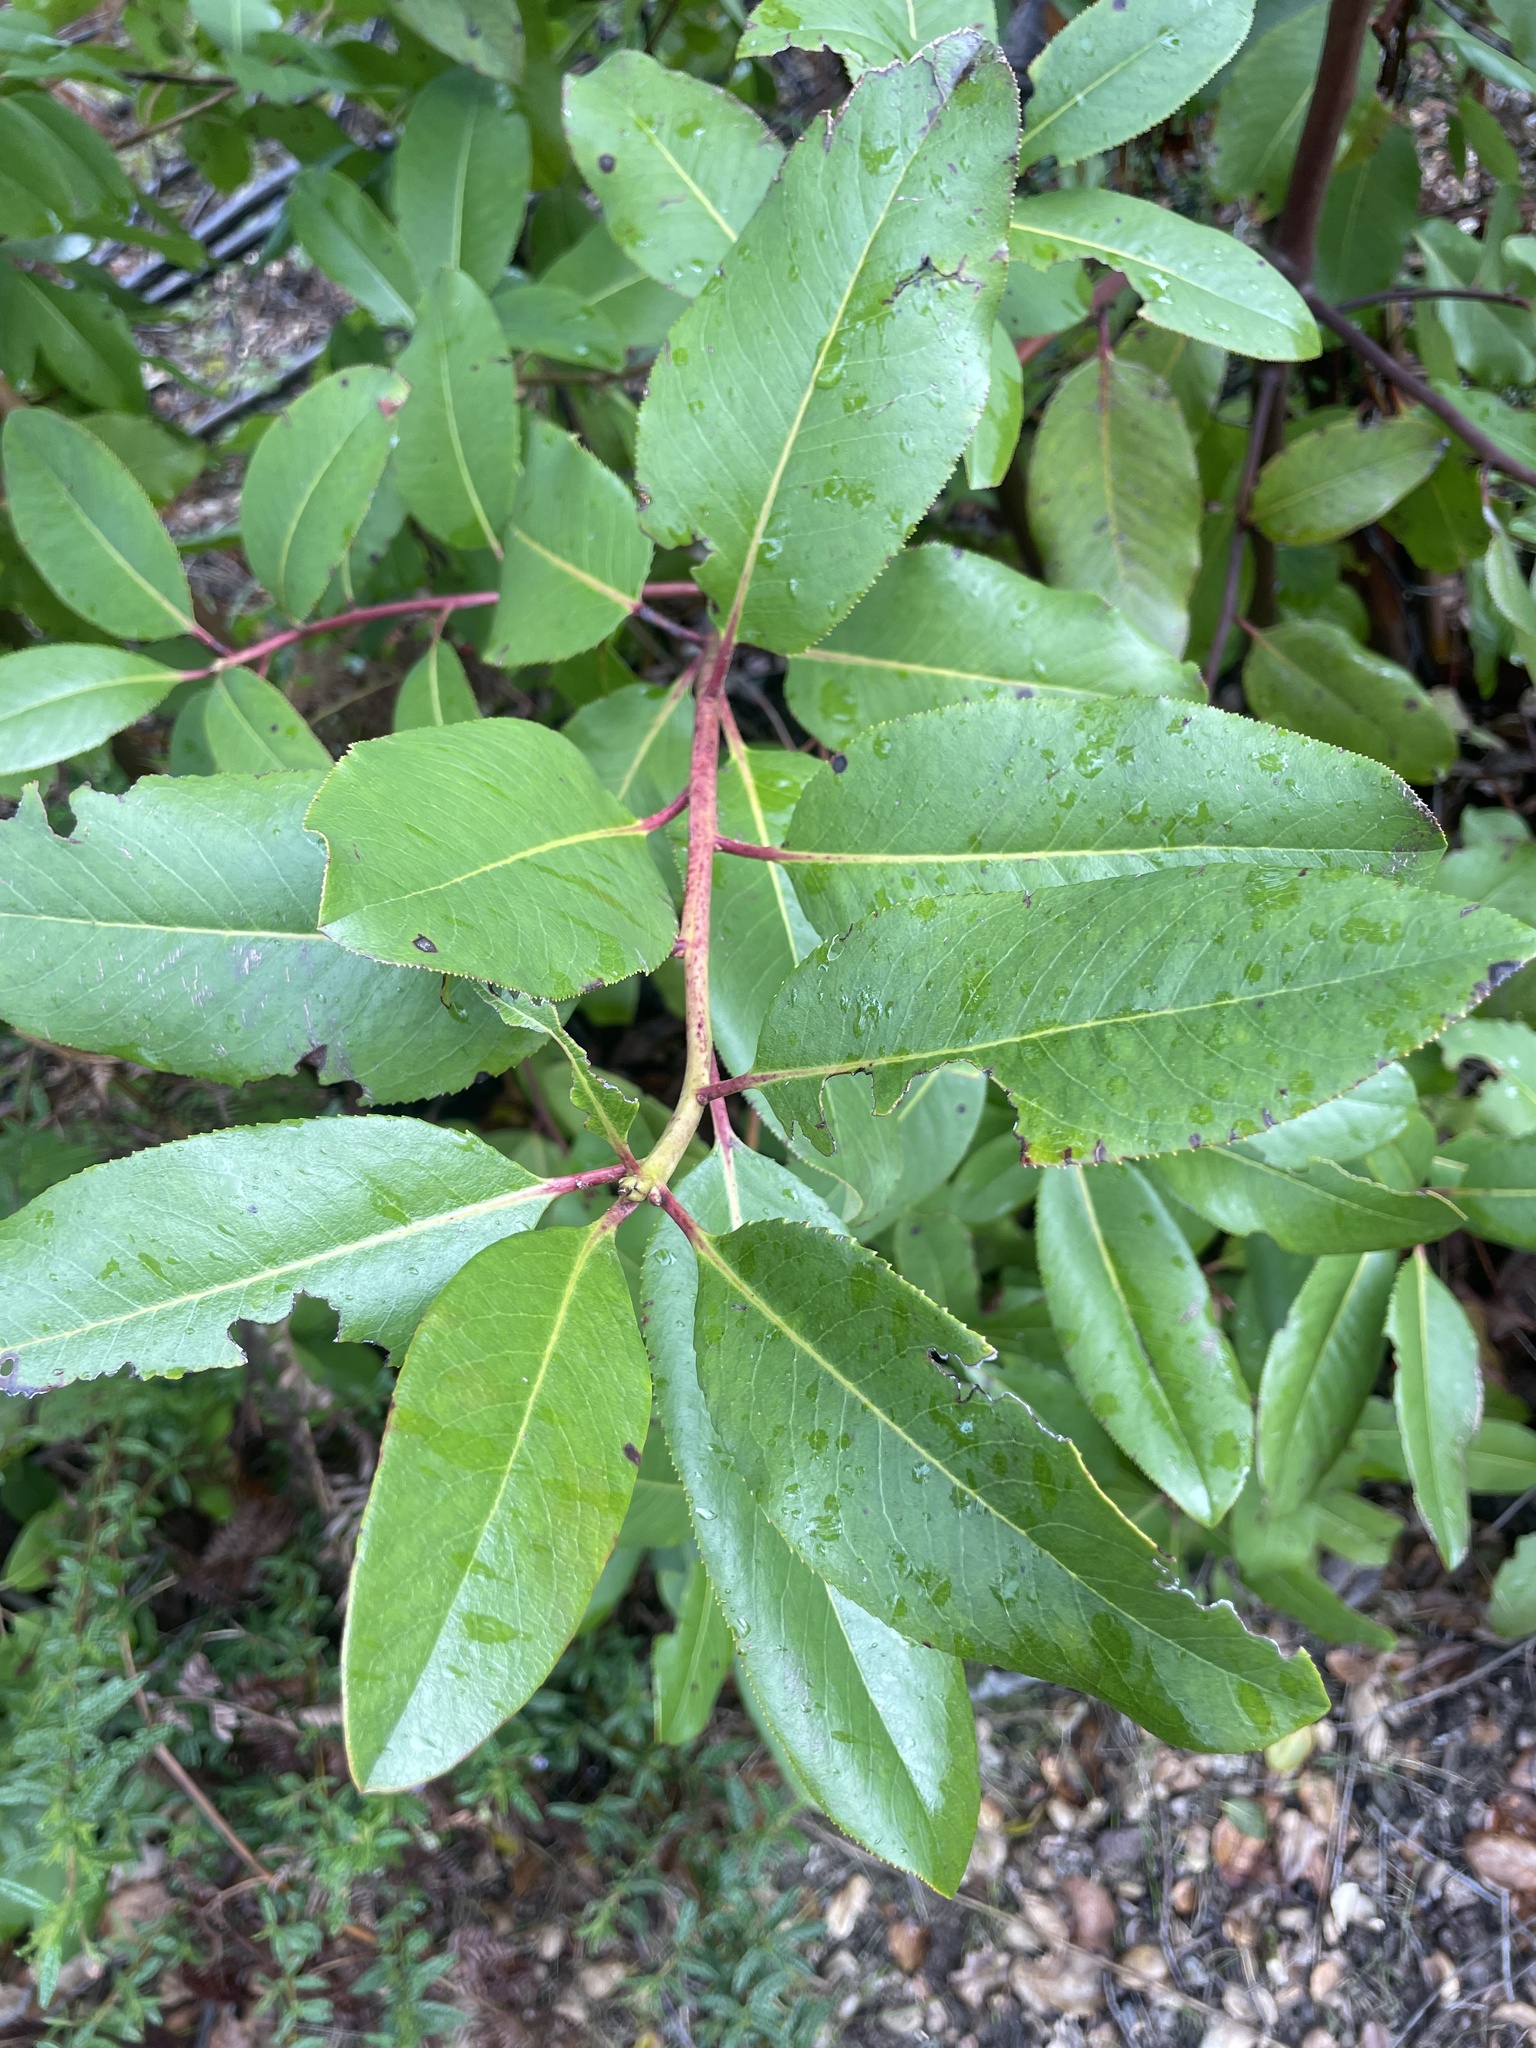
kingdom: Plantae
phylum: Tracheophyta
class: Magnoliopsida
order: Ericales
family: Ericaceae
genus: Arbutus
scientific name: Arbutus menziesii
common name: Pacific madrone
